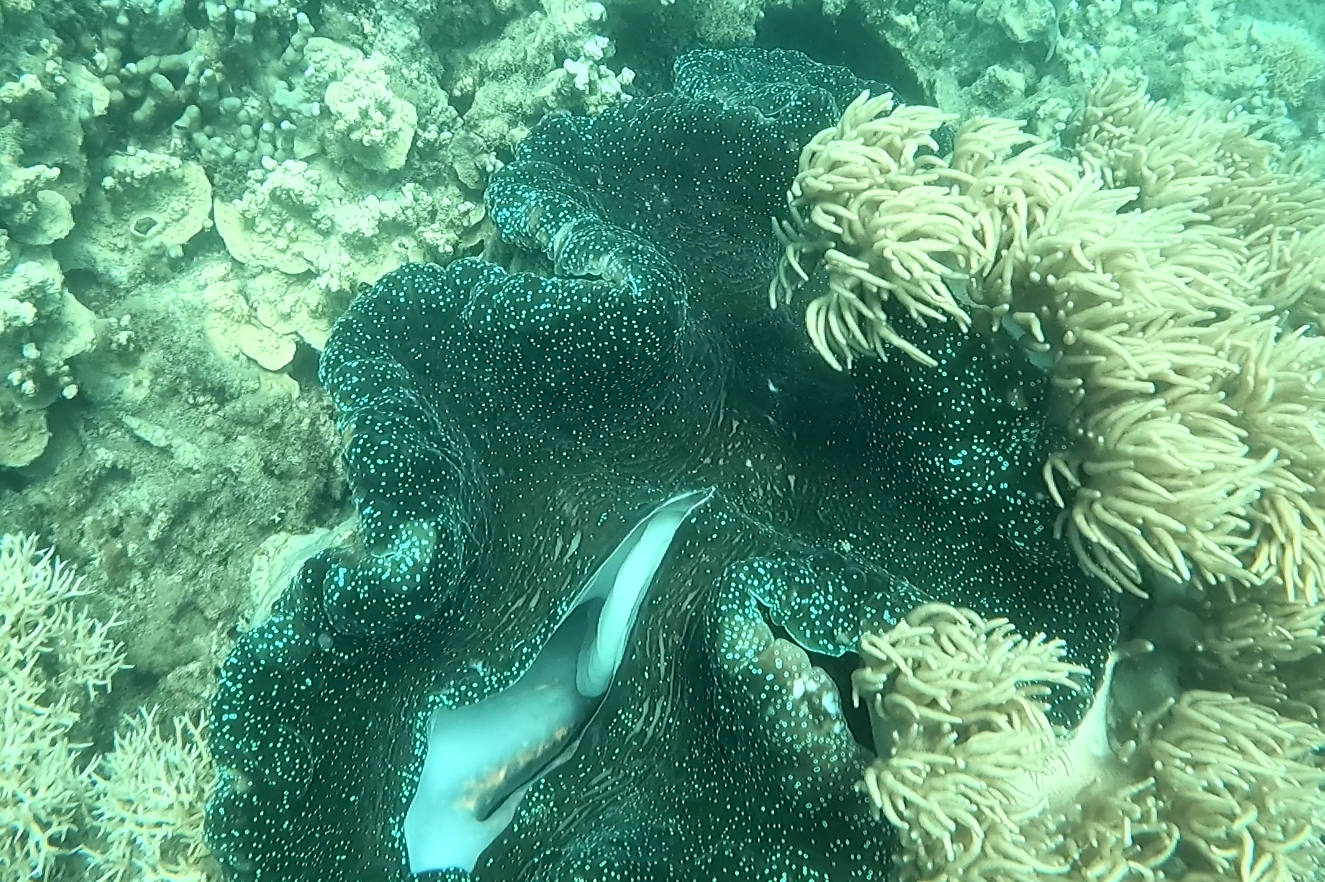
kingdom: Animalia
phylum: Mollusca
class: Bivalvia
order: Cardiida
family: Cardiidae
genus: Tridacna
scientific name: Tridacna gigas
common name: Giant clam
